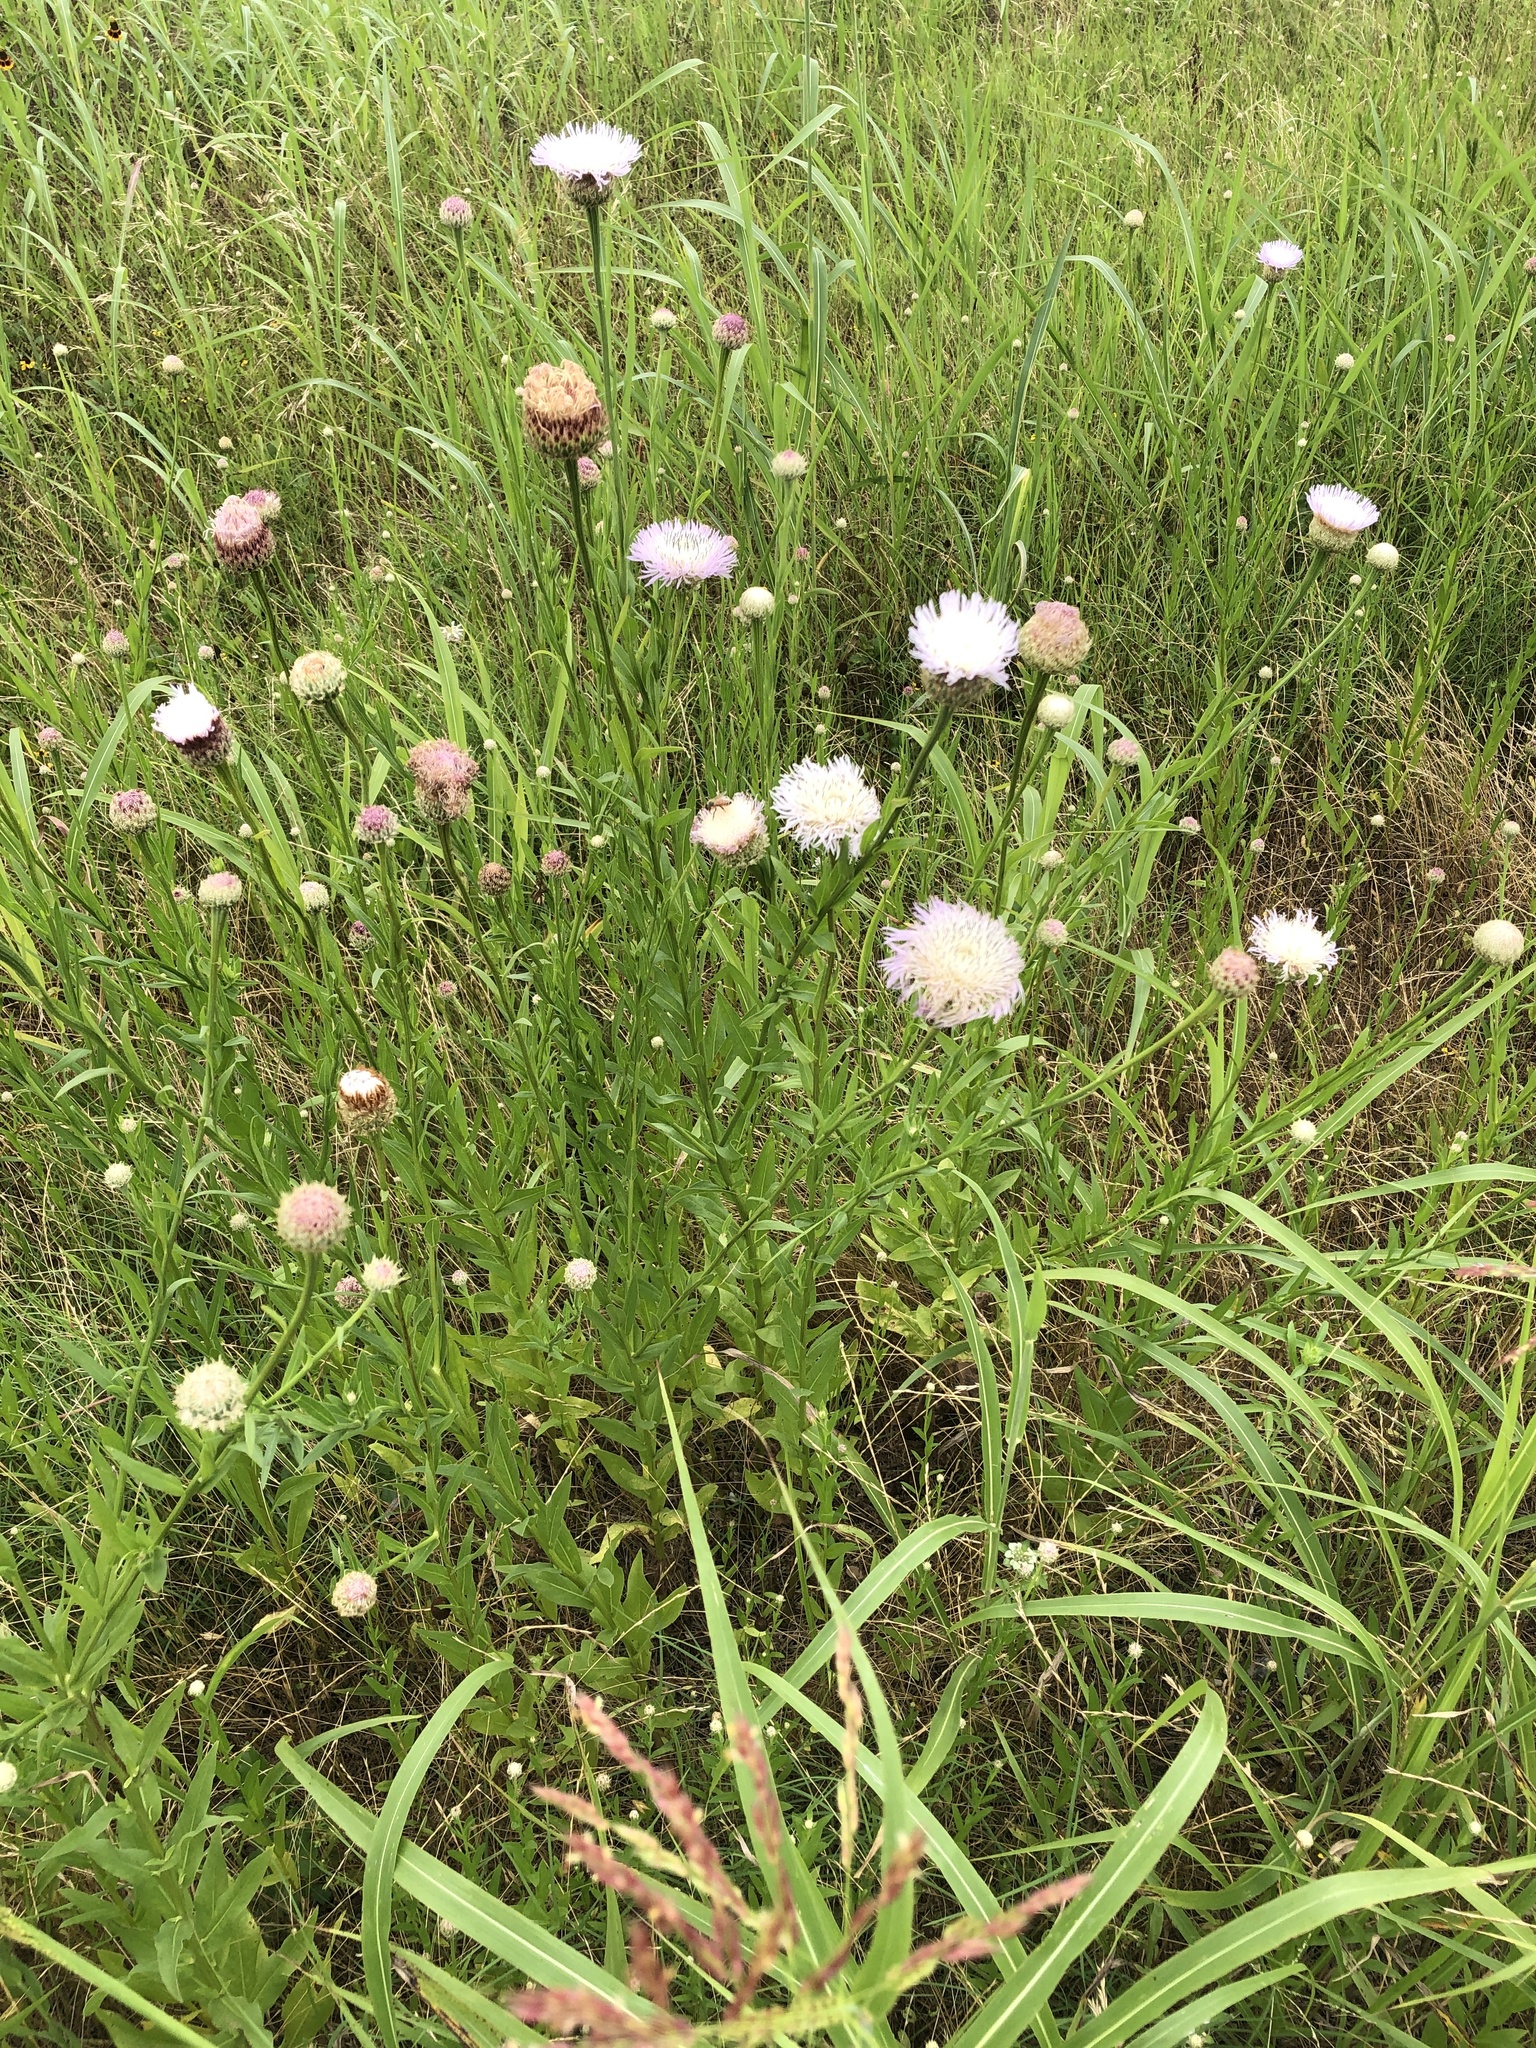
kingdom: Plantae
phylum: Tracheophyta
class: Magnoliopsida
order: Asterales
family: Asteraceae
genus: Plectocephalus
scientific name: Plectocephalus americanus
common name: American basket-flower
